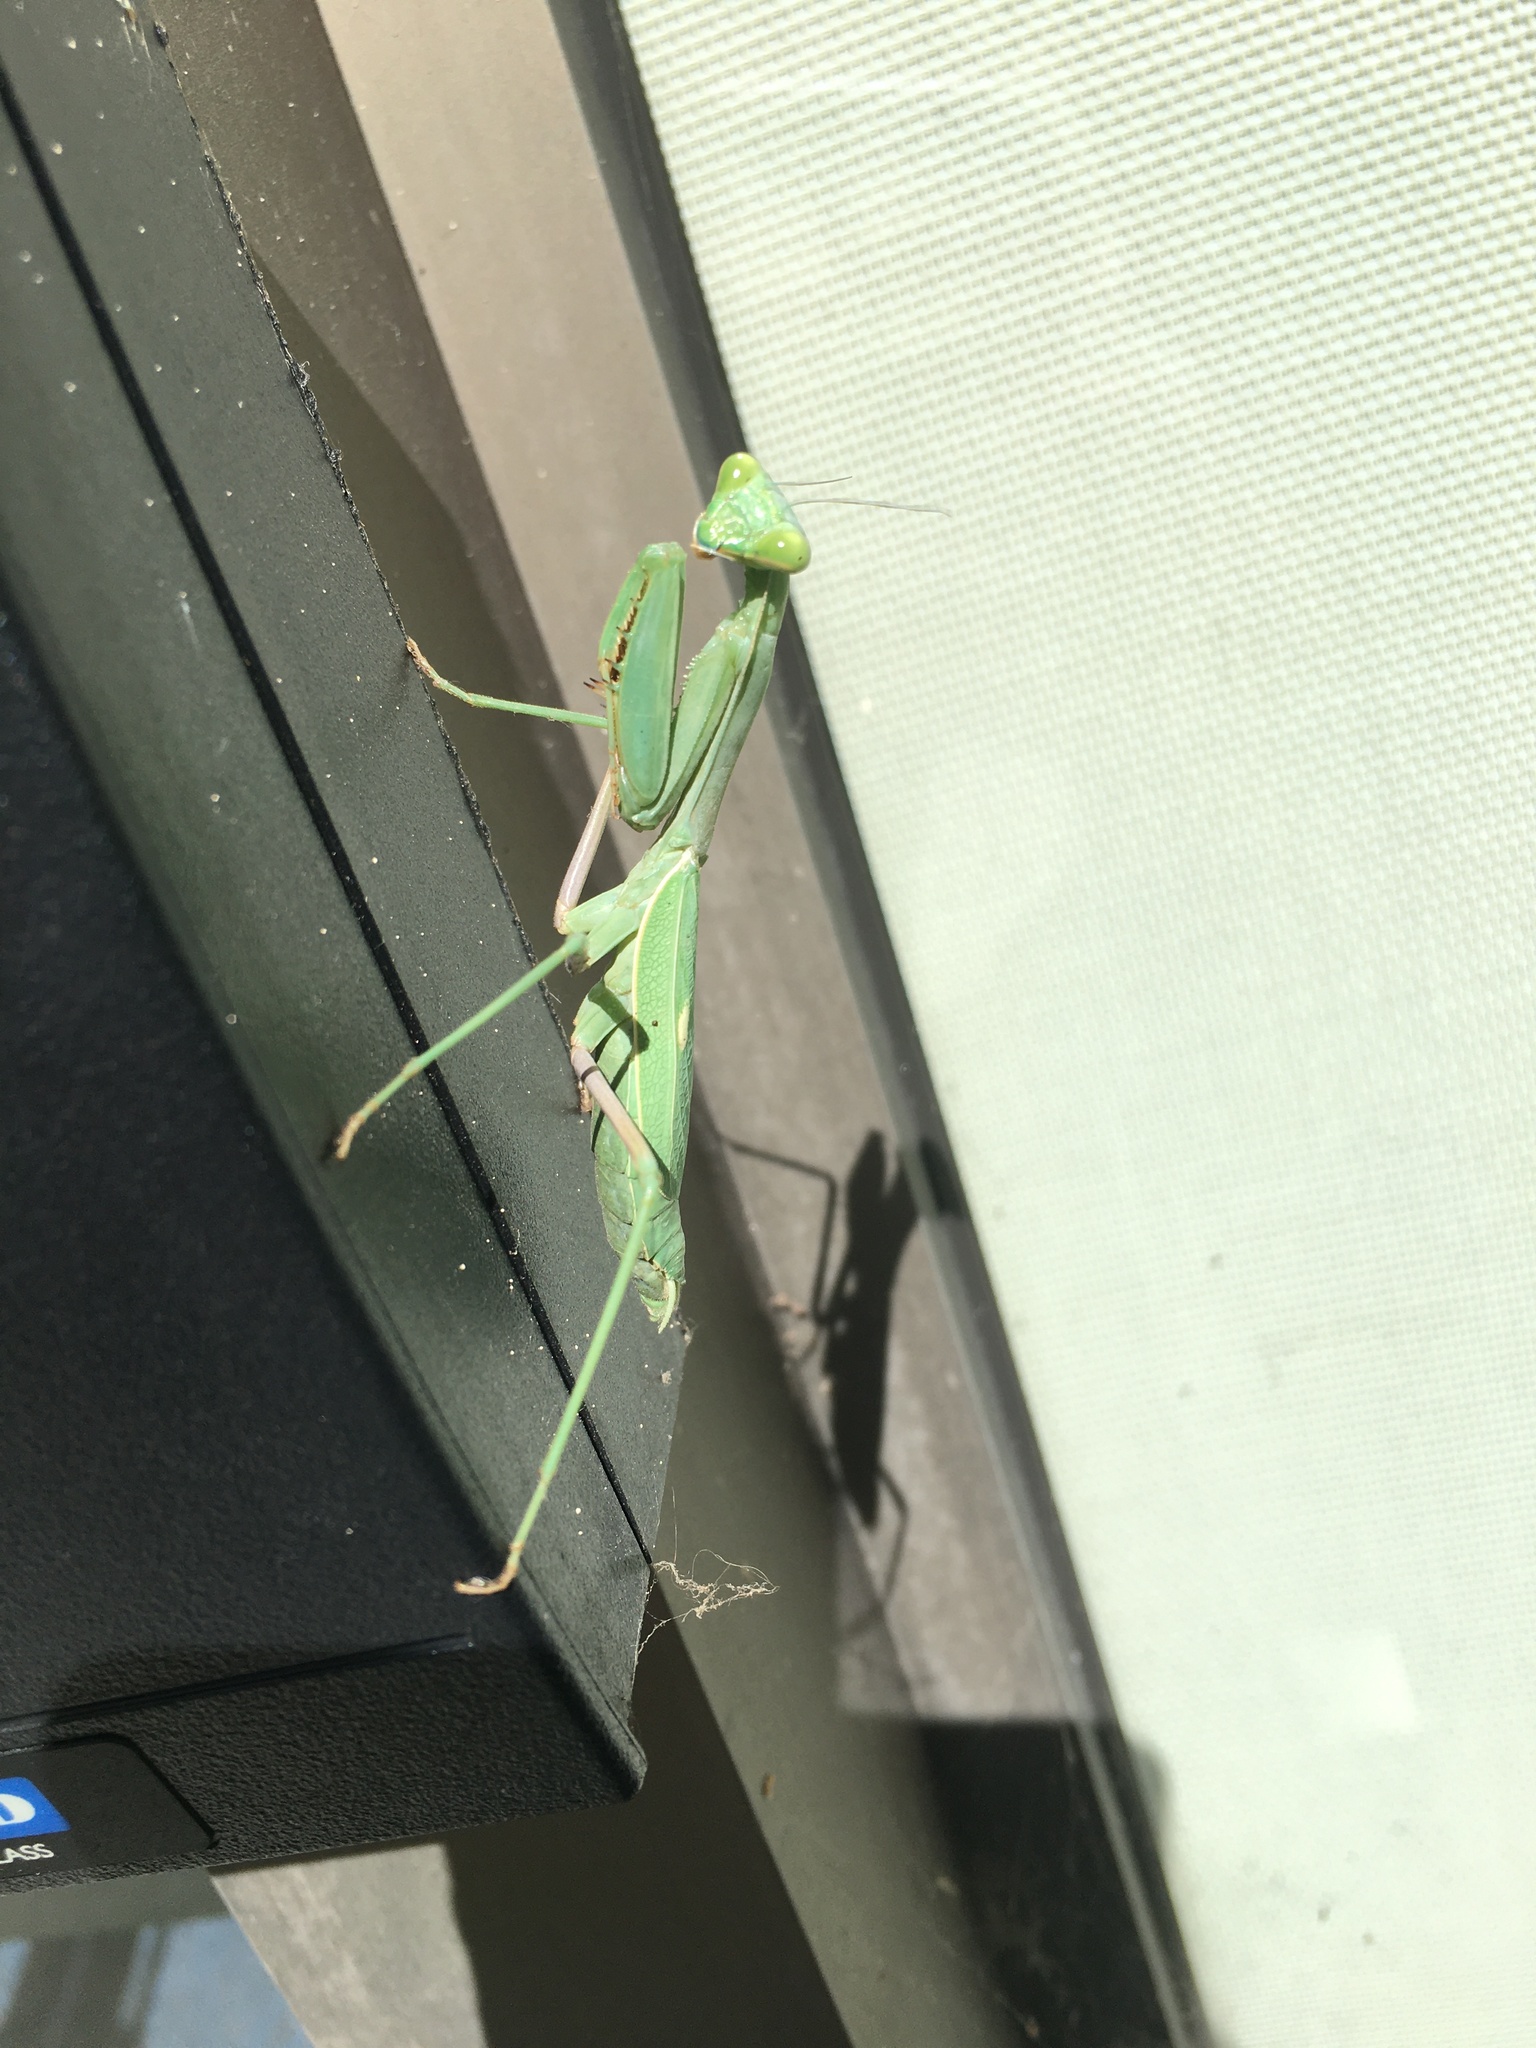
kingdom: Animalia
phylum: Arthropoda
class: Insecta
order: Mantodea
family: Mantidae
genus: Stagmomantis
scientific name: Stagmomantis limbata
